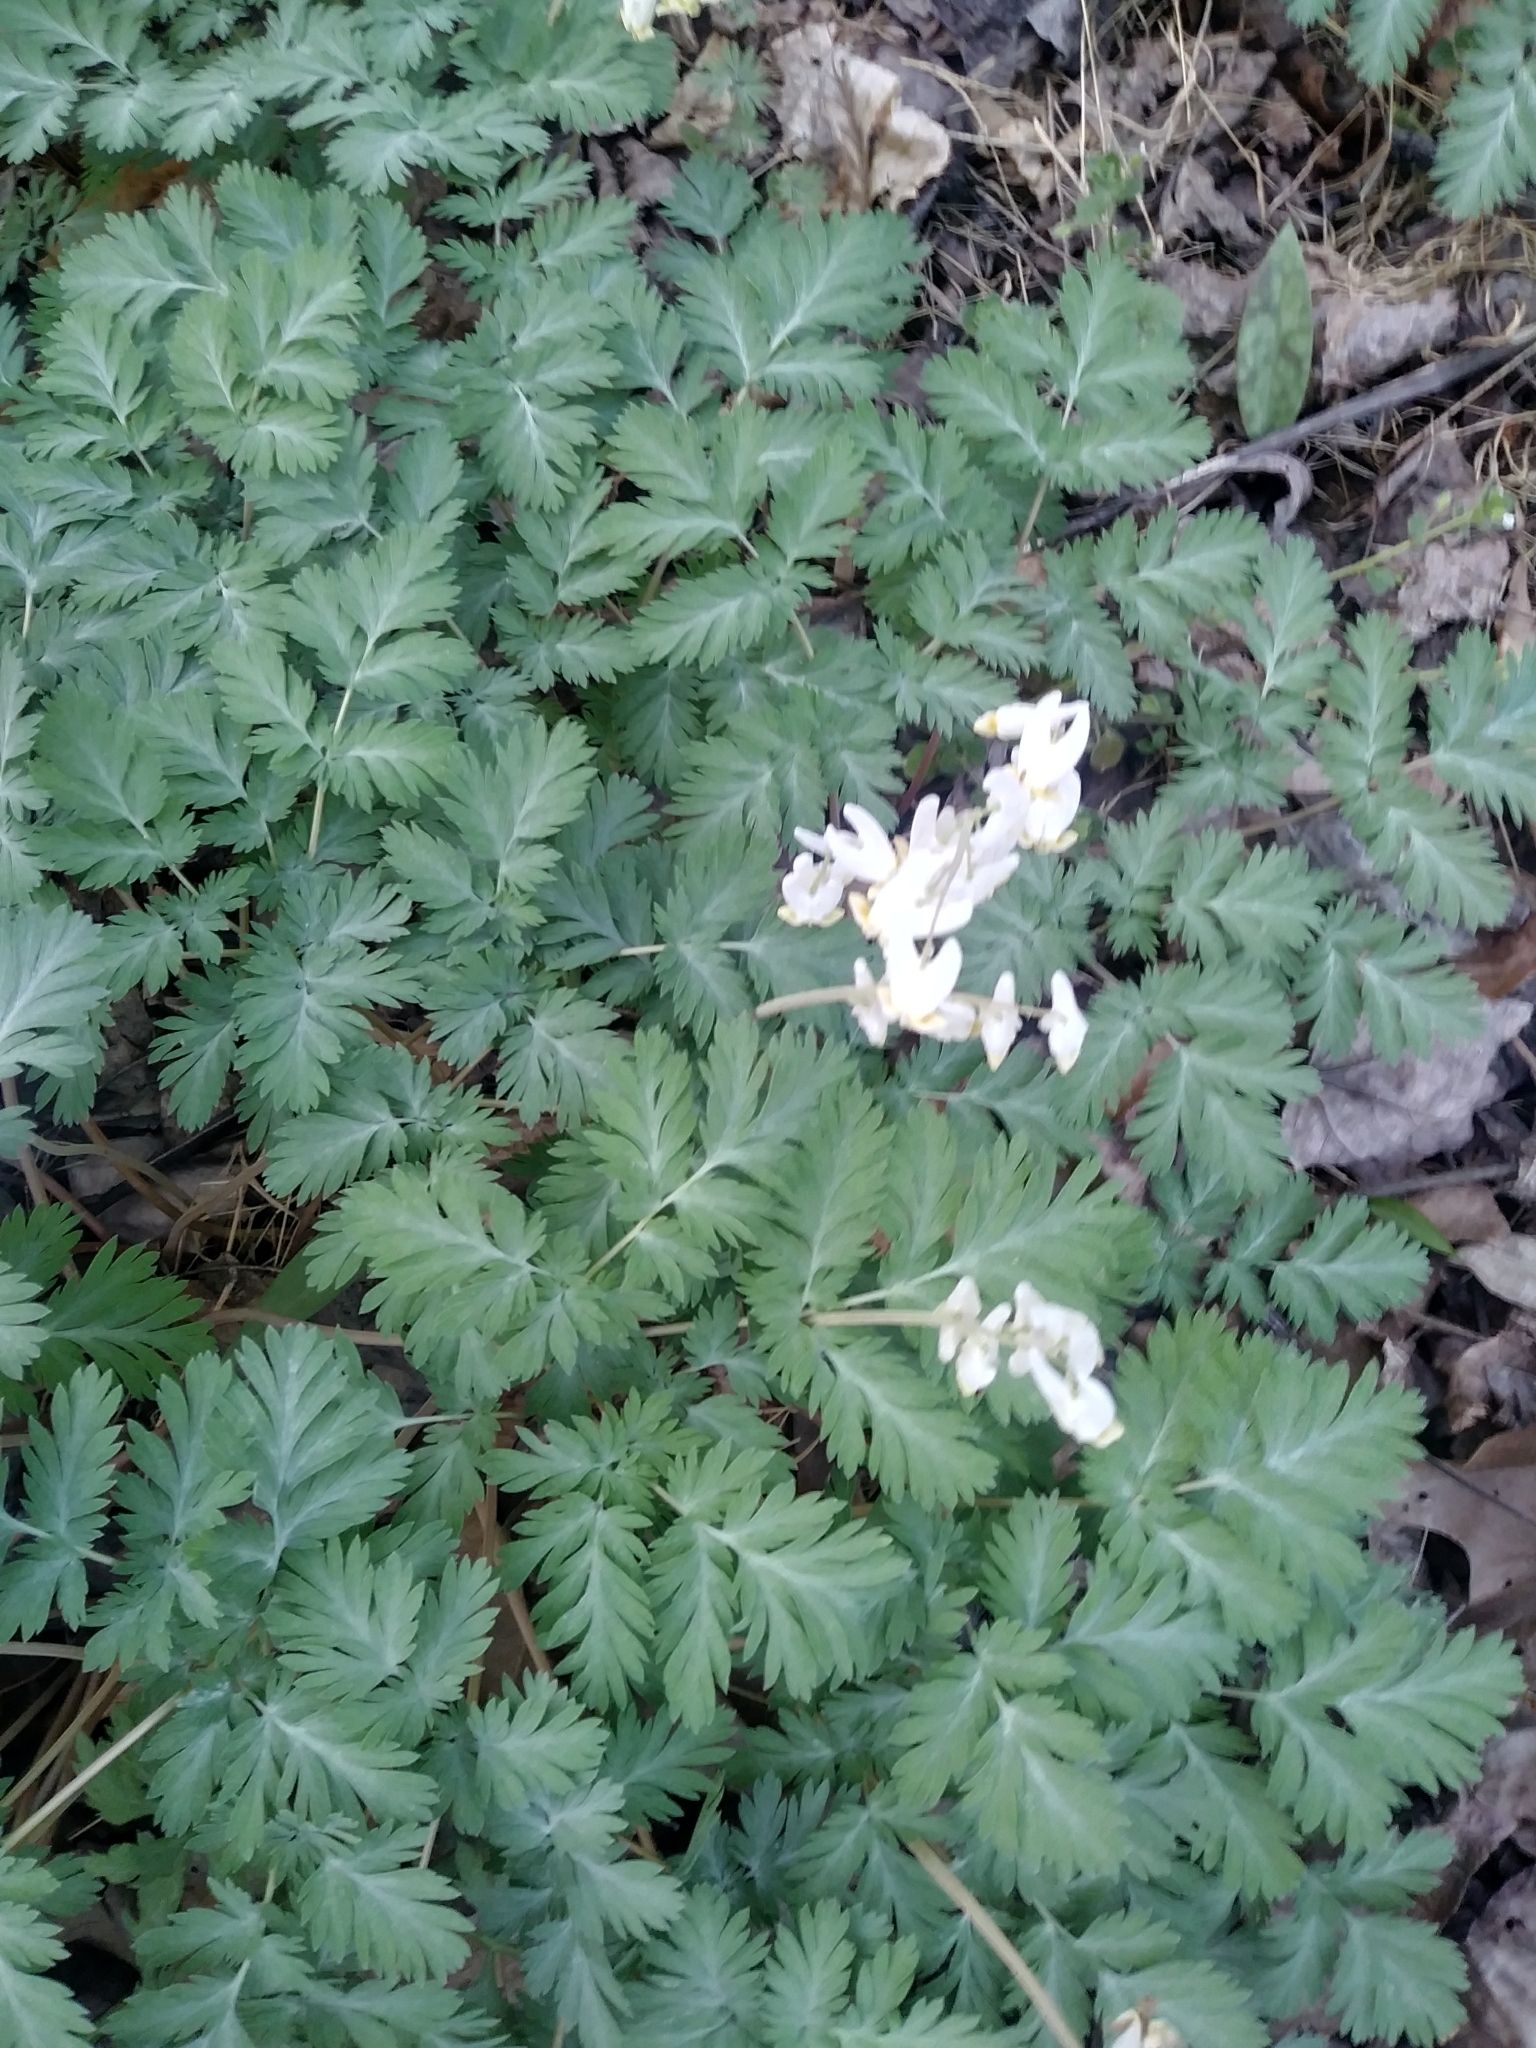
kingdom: Plantae
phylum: Tracheophyta
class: Magnoliopsida
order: Ranunculales
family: Papaveraceae
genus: Dicentra
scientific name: Dicentra cucullaria
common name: Dutchman's breeches
